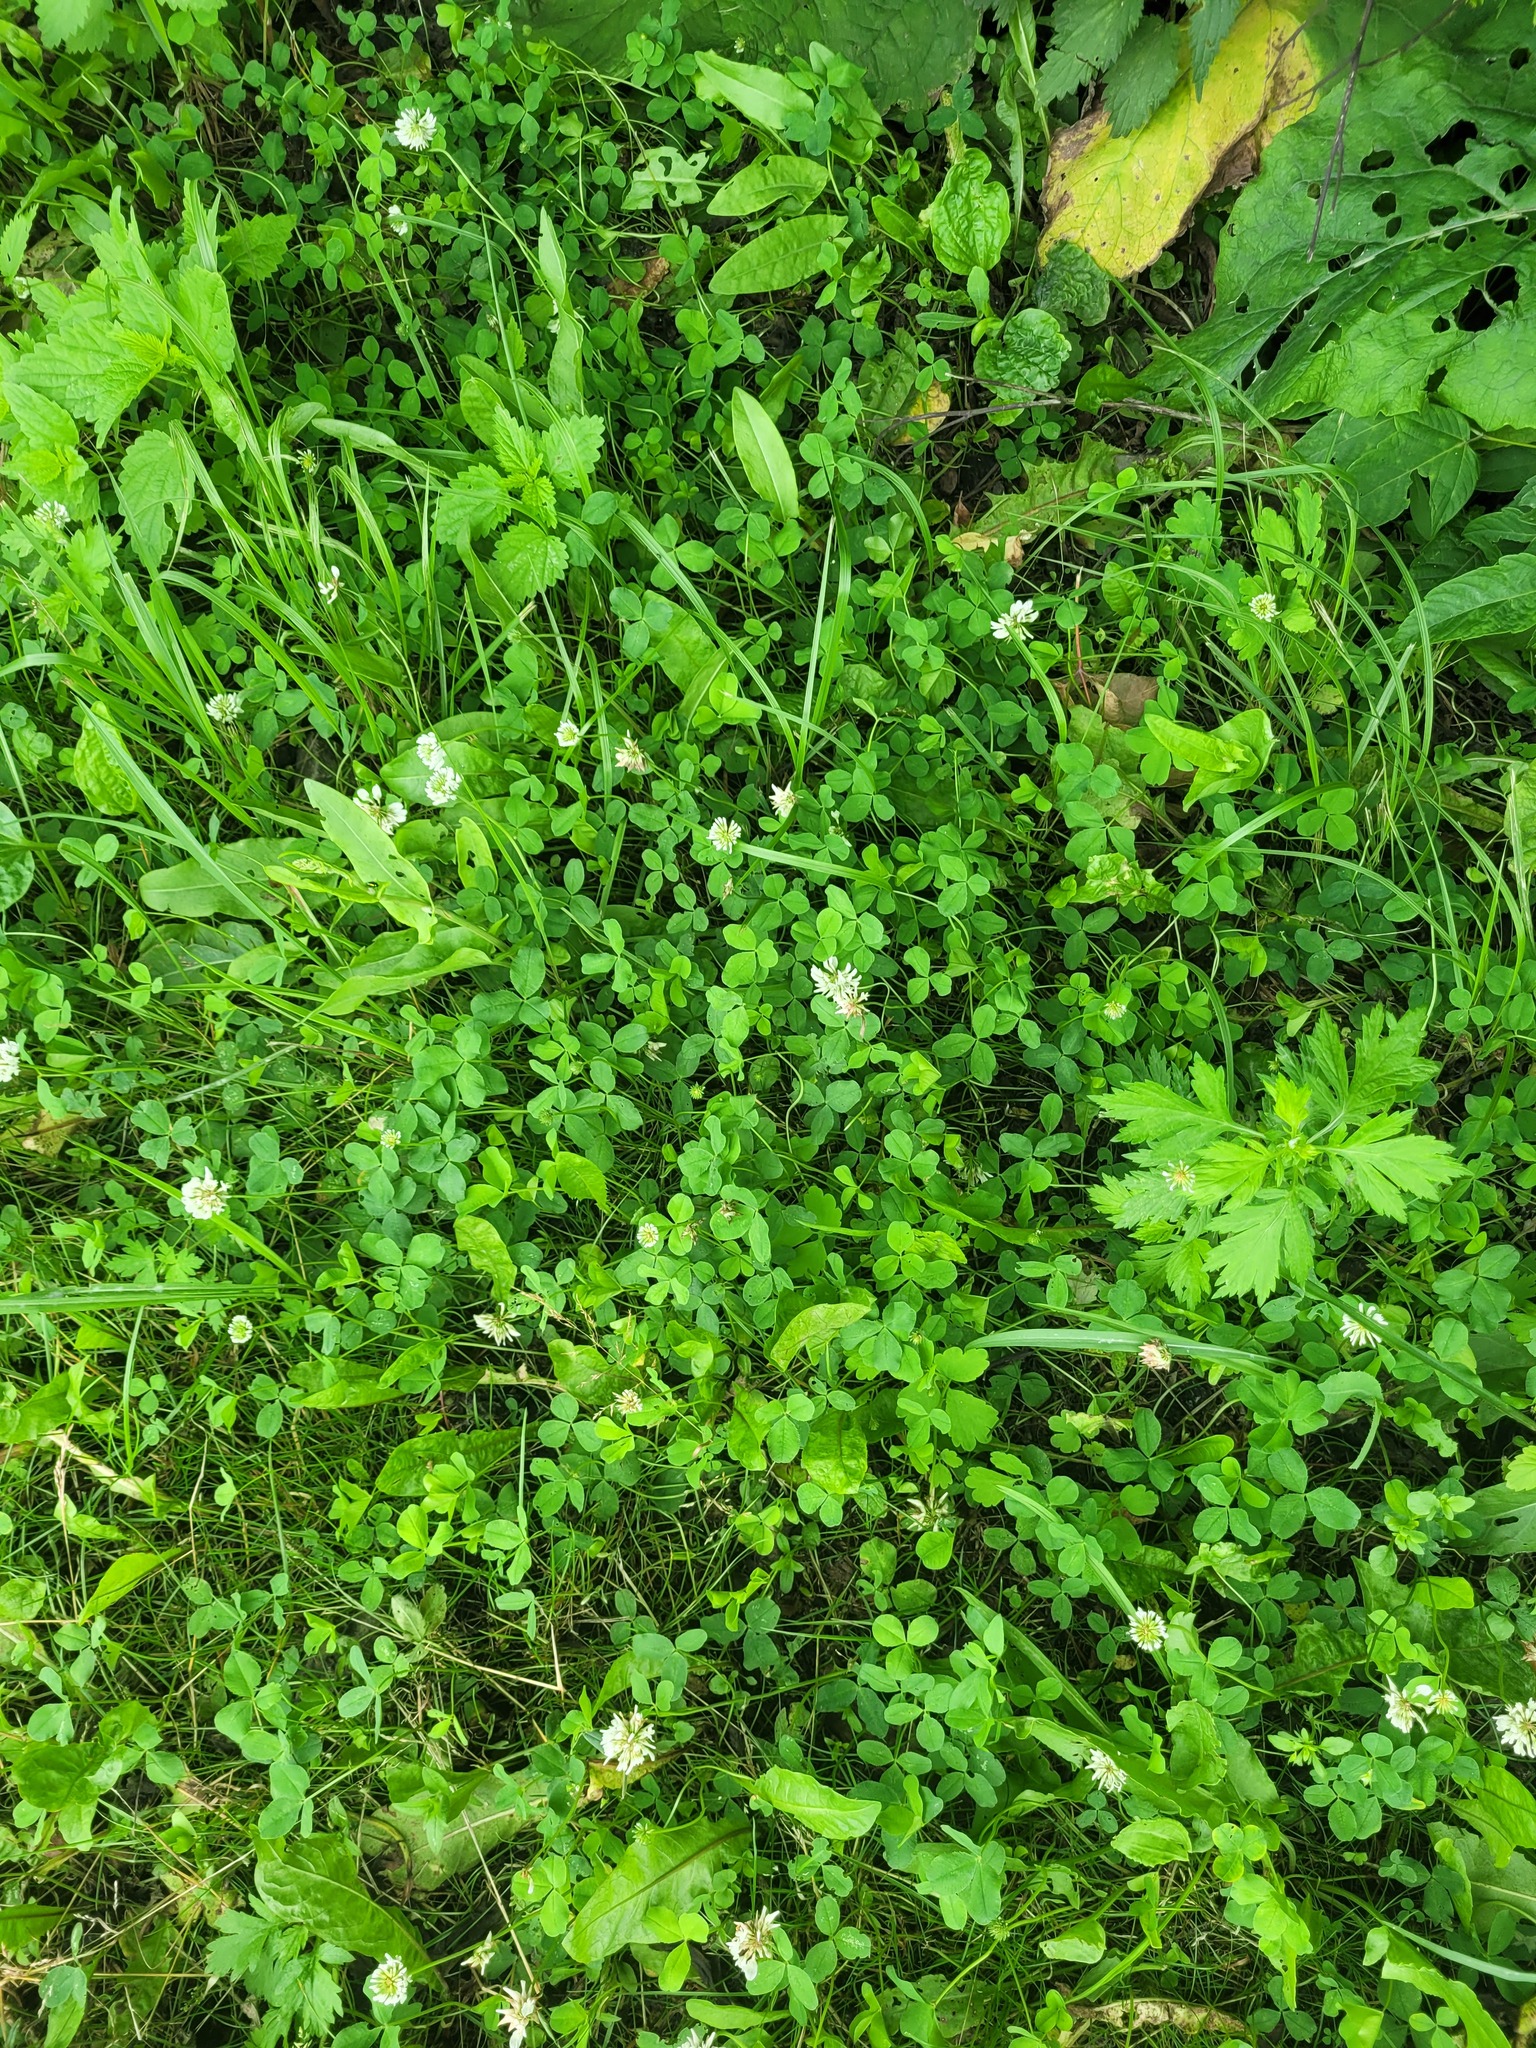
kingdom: Plantae
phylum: Tracheophyta
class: Magnoliopsida
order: Fabales
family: Fabaceae
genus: Trifolium
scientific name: Trifolium repens
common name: White clover
